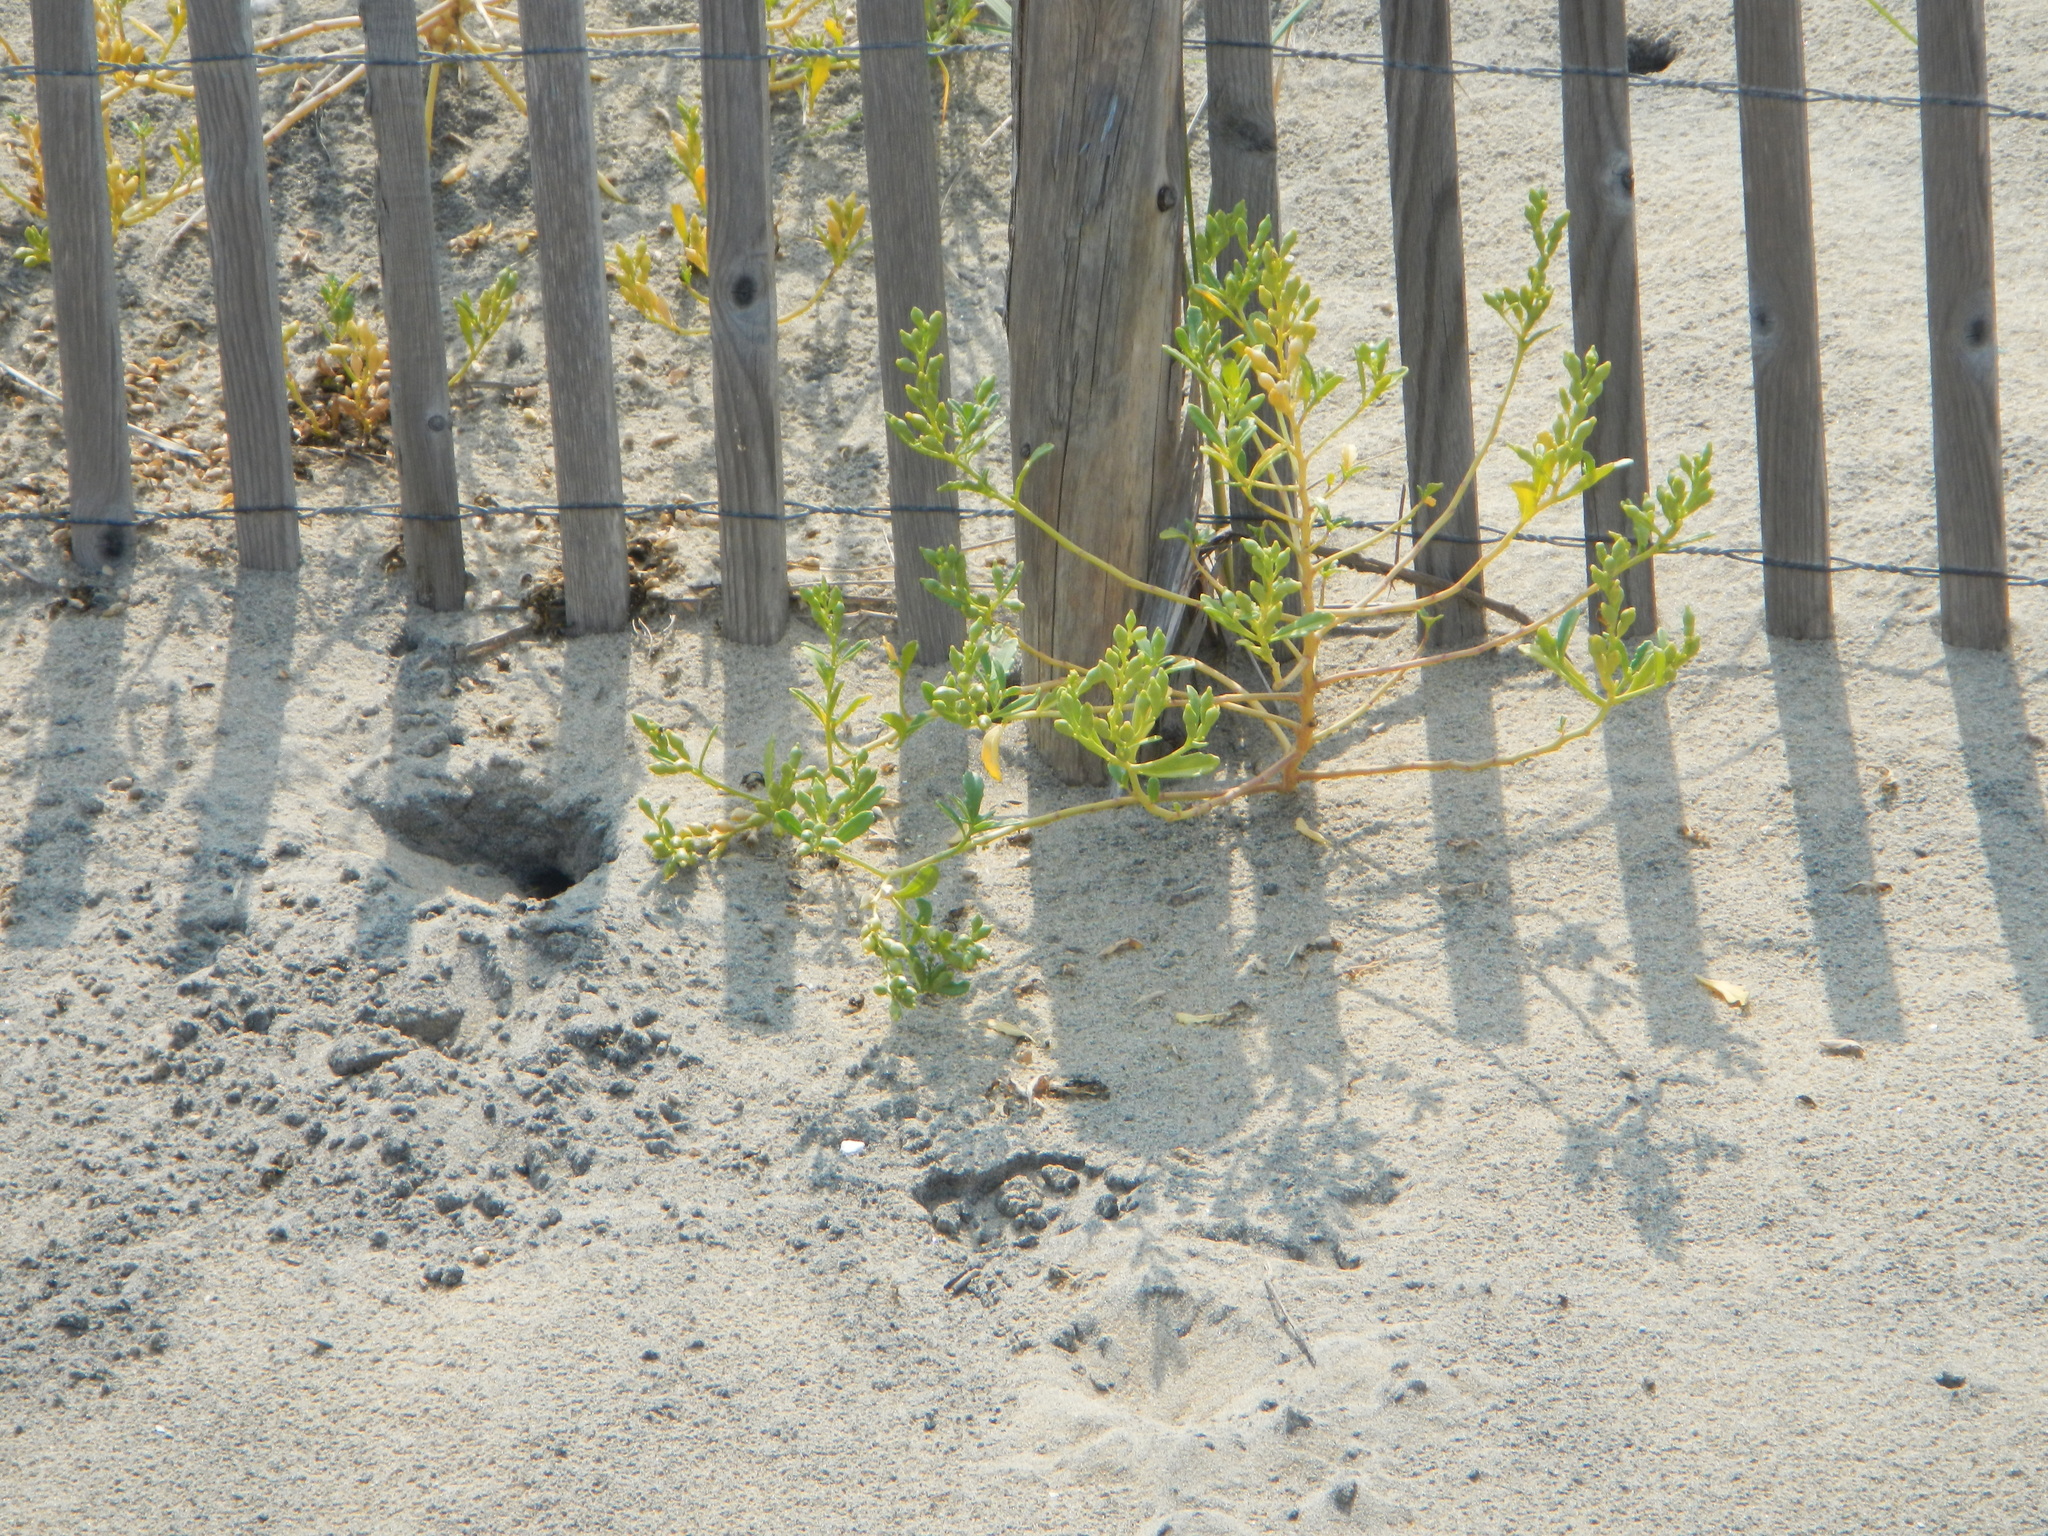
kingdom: Plantae
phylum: Tracheophyta
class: Magnoliopsida
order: Brassicales
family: Brassicaceae
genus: Cakile
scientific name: Cakile edentula
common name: American sea rocket
